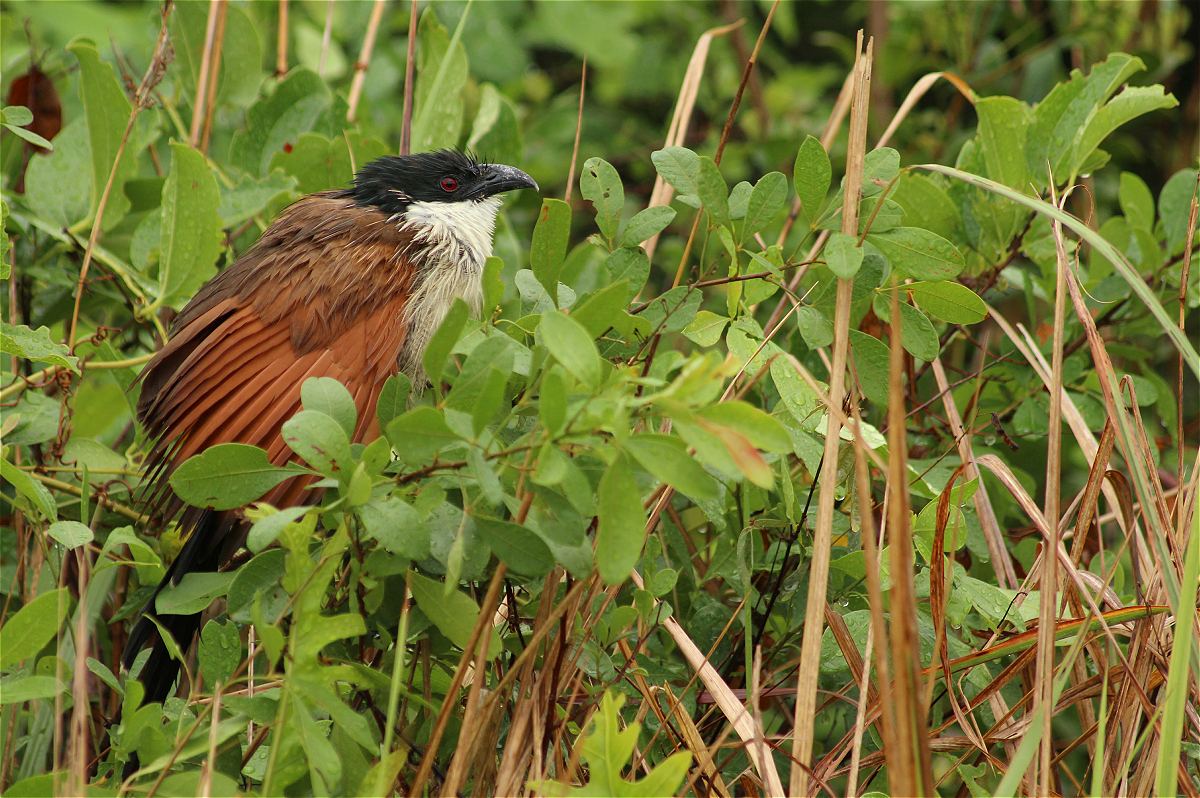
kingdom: Animalia
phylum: Chordata
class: Aves
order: Cuculiformes
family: Cuculidae
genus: Centropus
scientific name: Centropus superciliosus
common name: White-browed coucal
